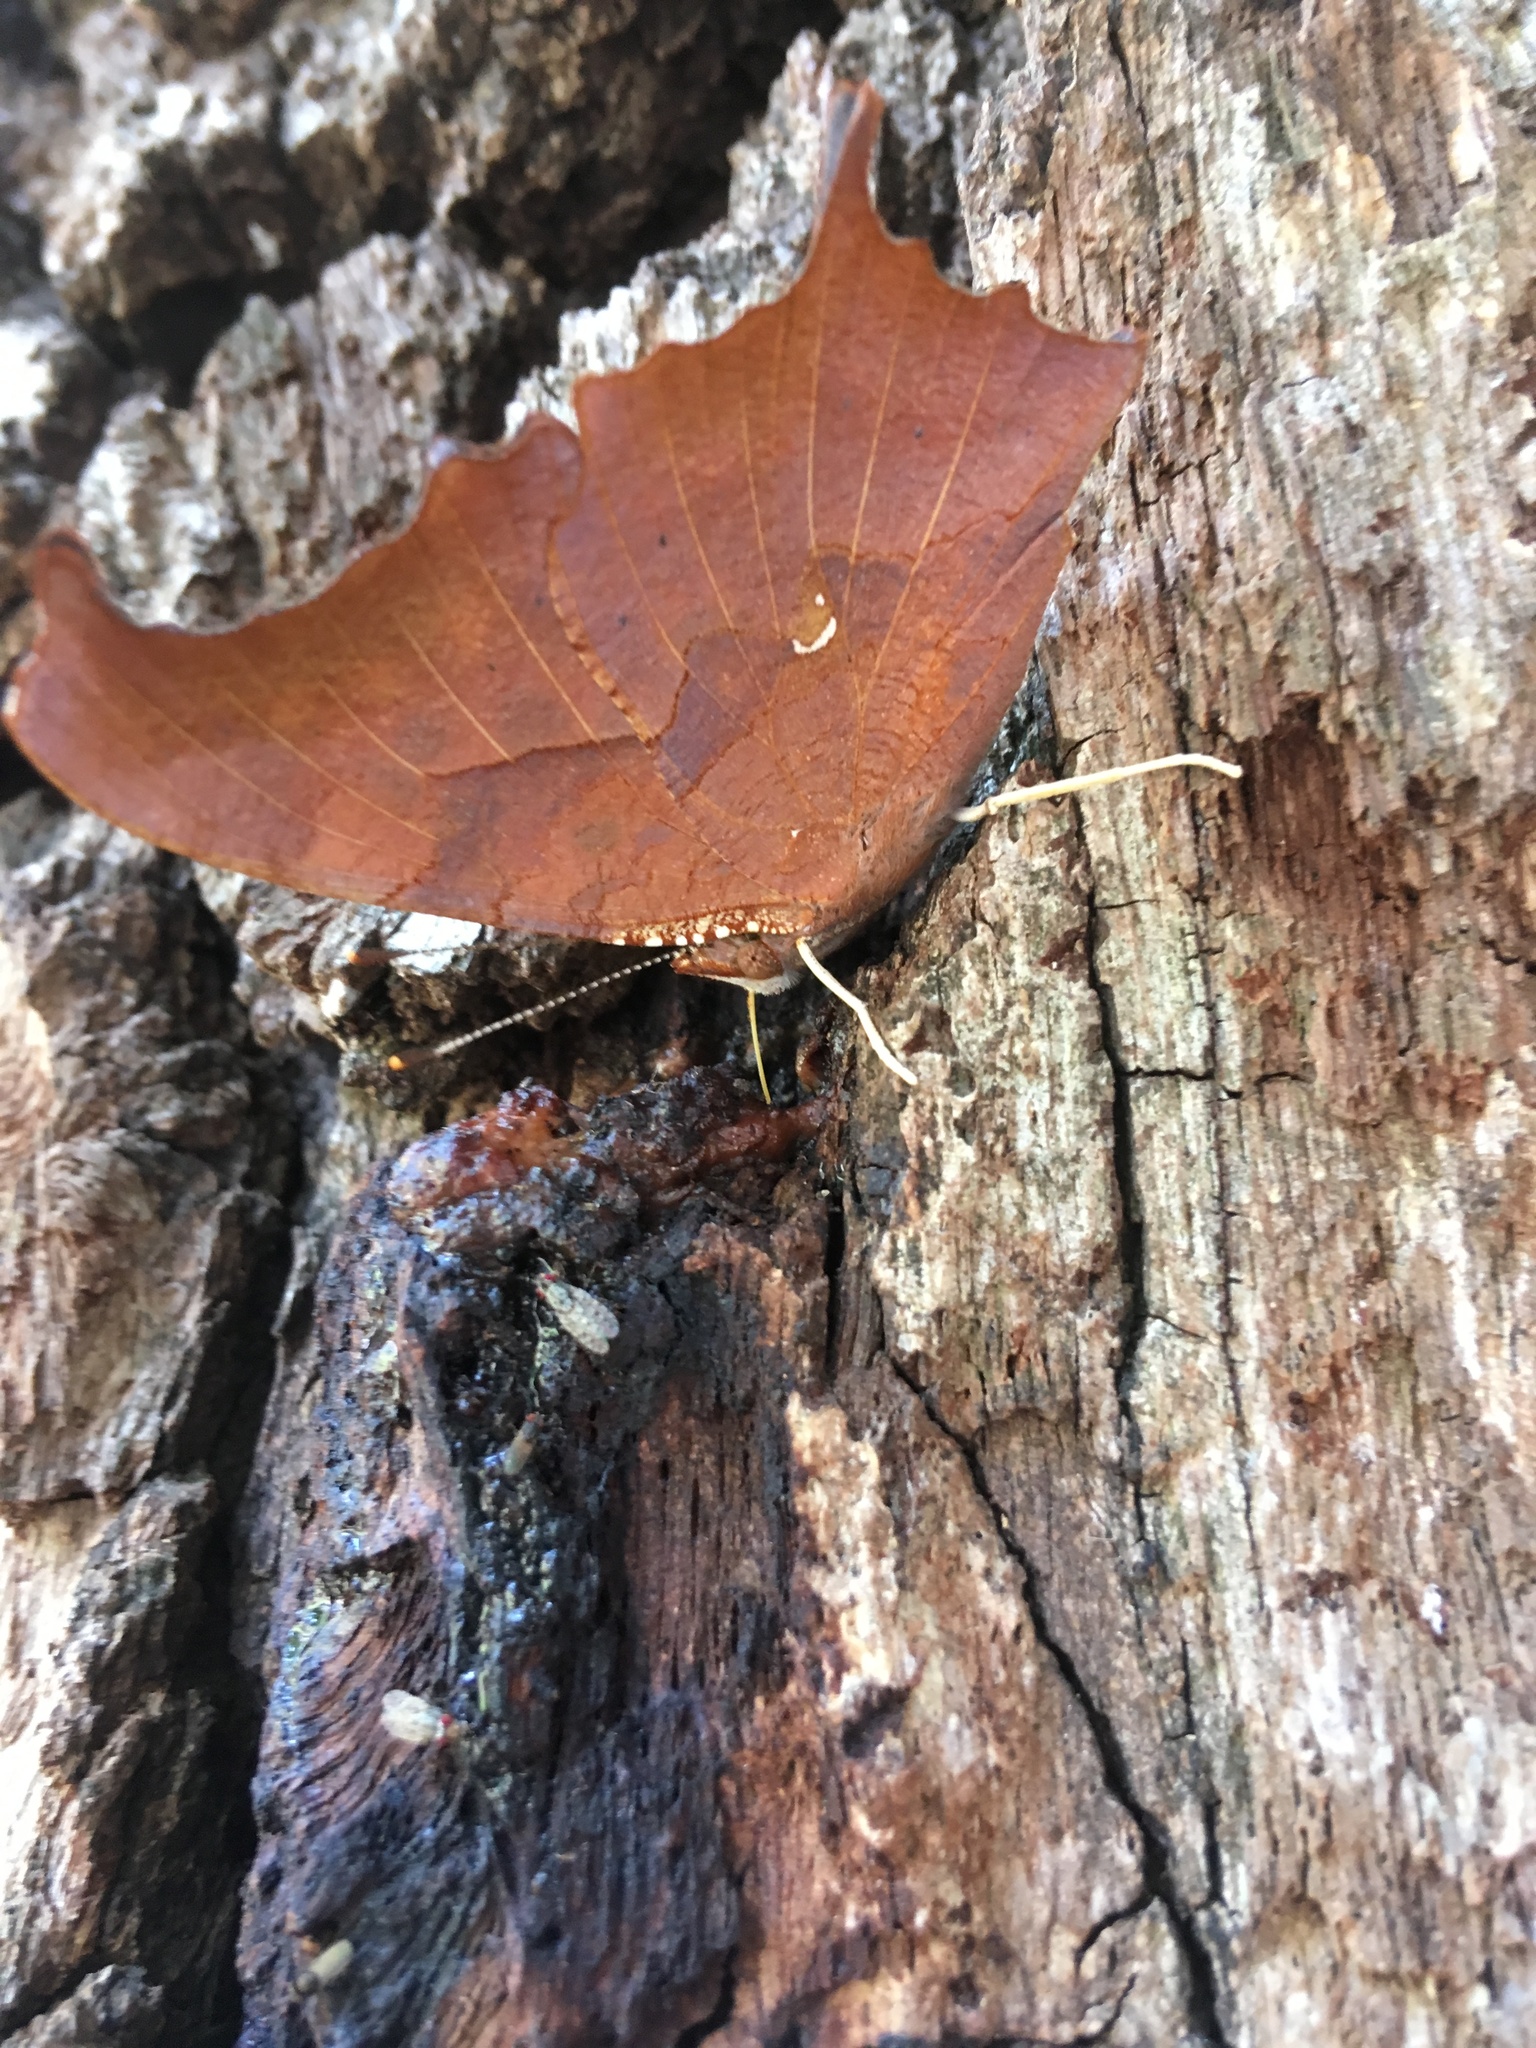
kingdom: Animalia
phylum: Arthropoda
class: Insecta
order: Lepidoptera
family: Nymphalidae
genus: Polygonia
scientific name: Polygonia interrogationis
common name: Question mark
